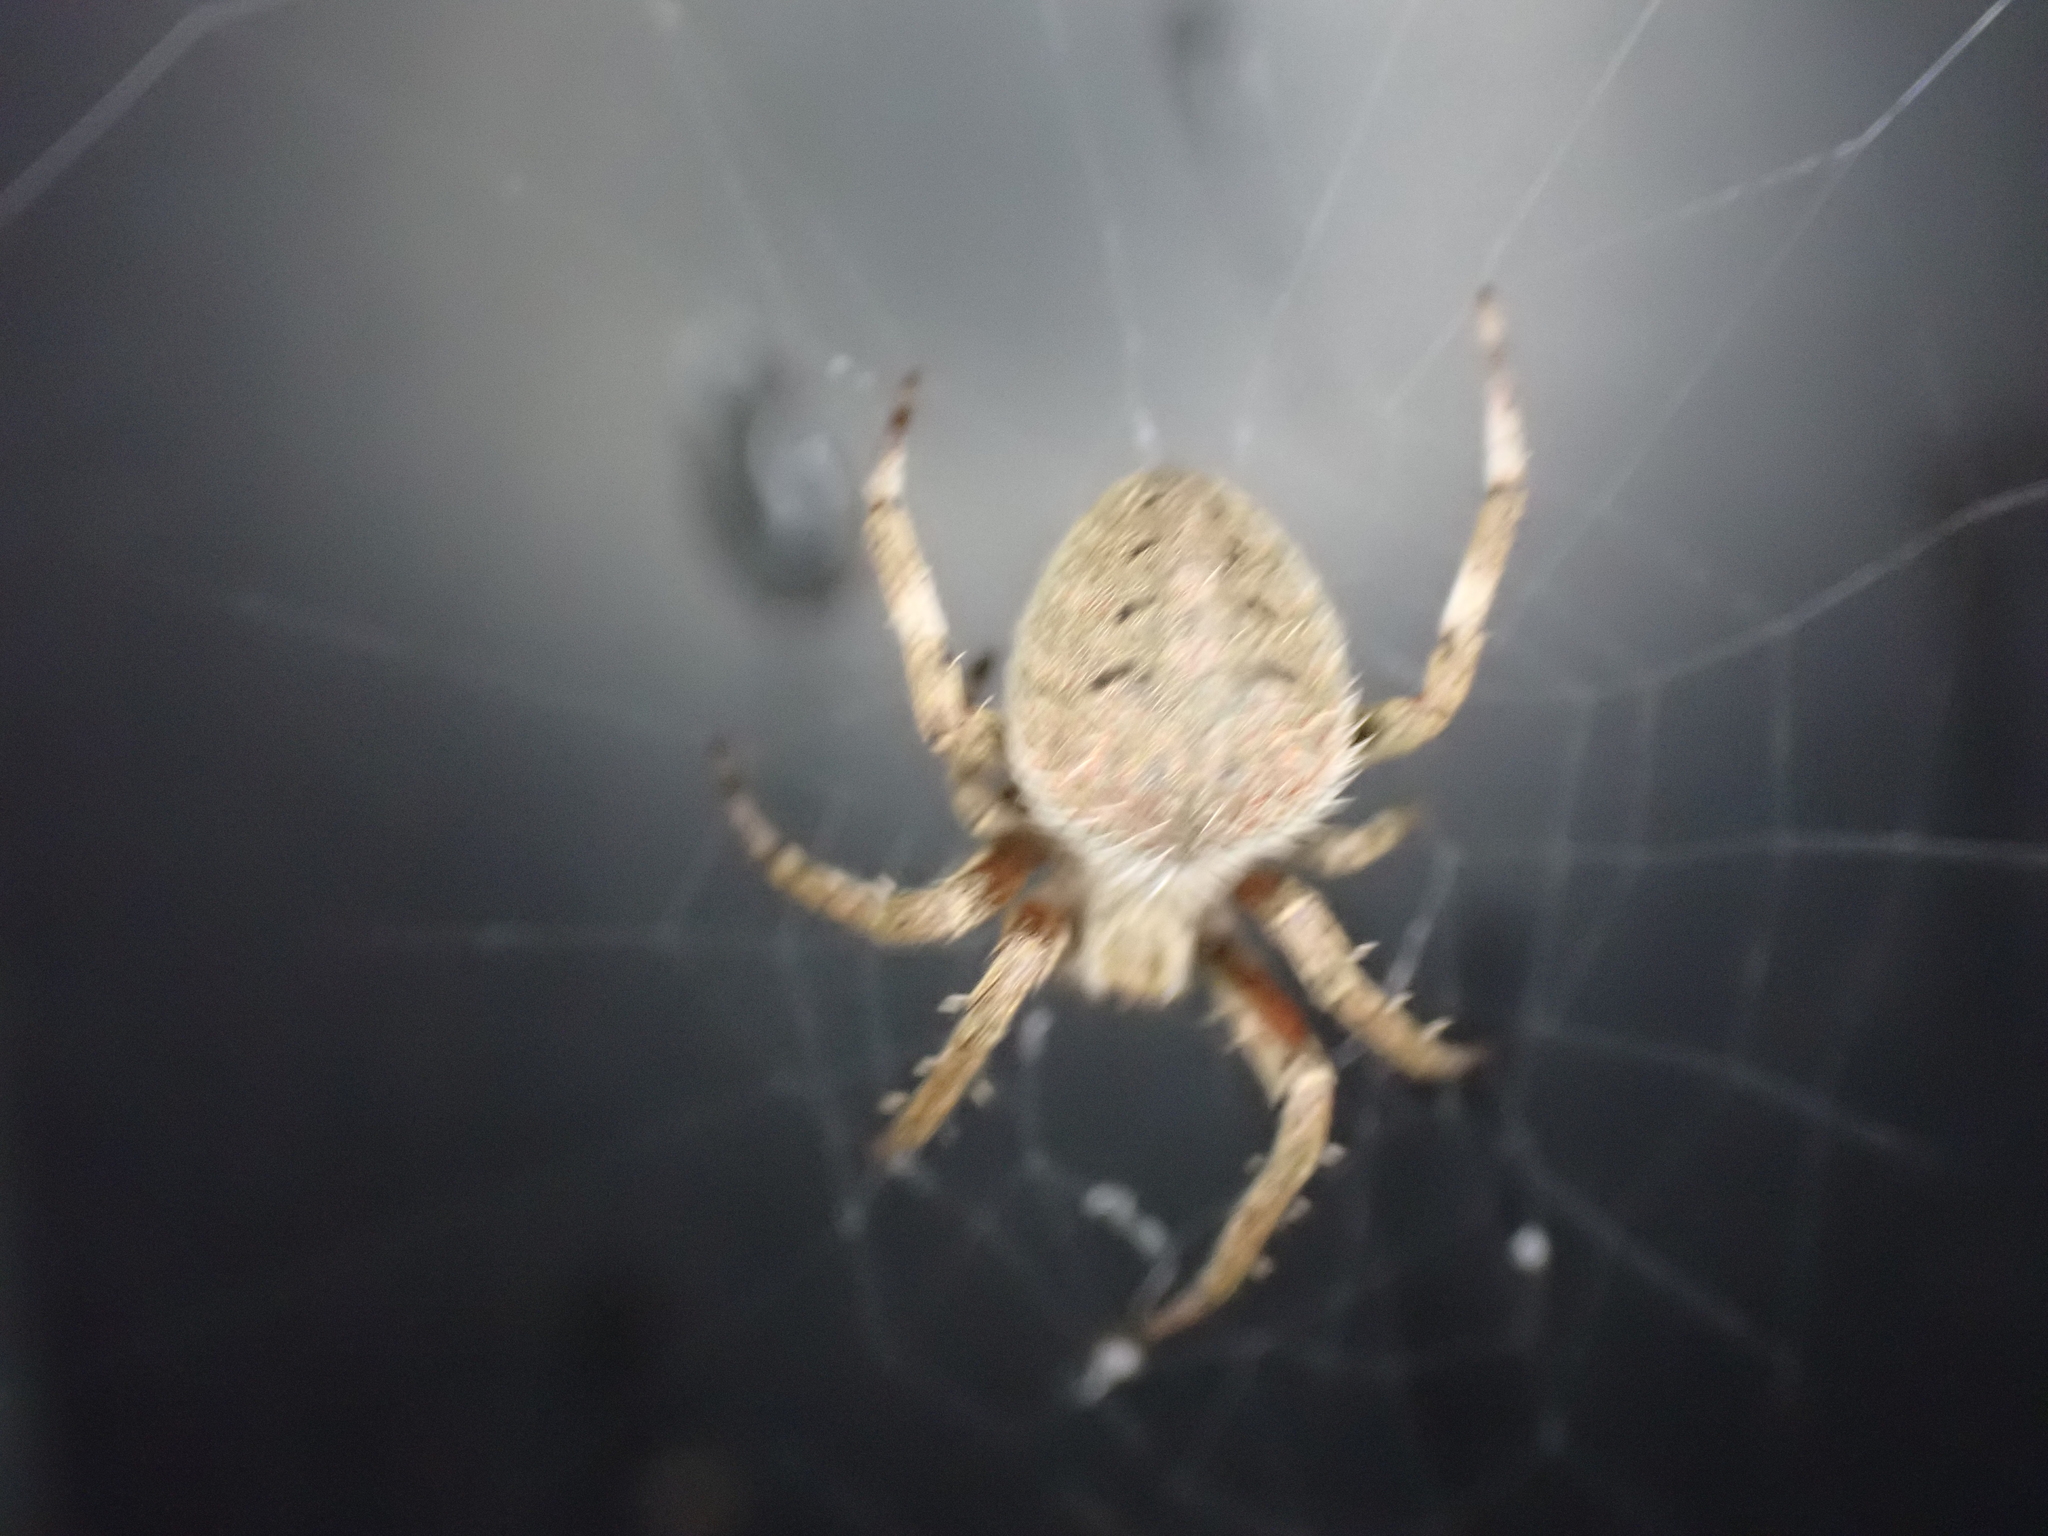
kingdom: Animalia
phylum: Arthropoda
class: Arachnida
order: Araneae
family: Araneidae
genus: Neoscona
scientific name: Neoscona crucifera
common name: Spotted orbweaver
